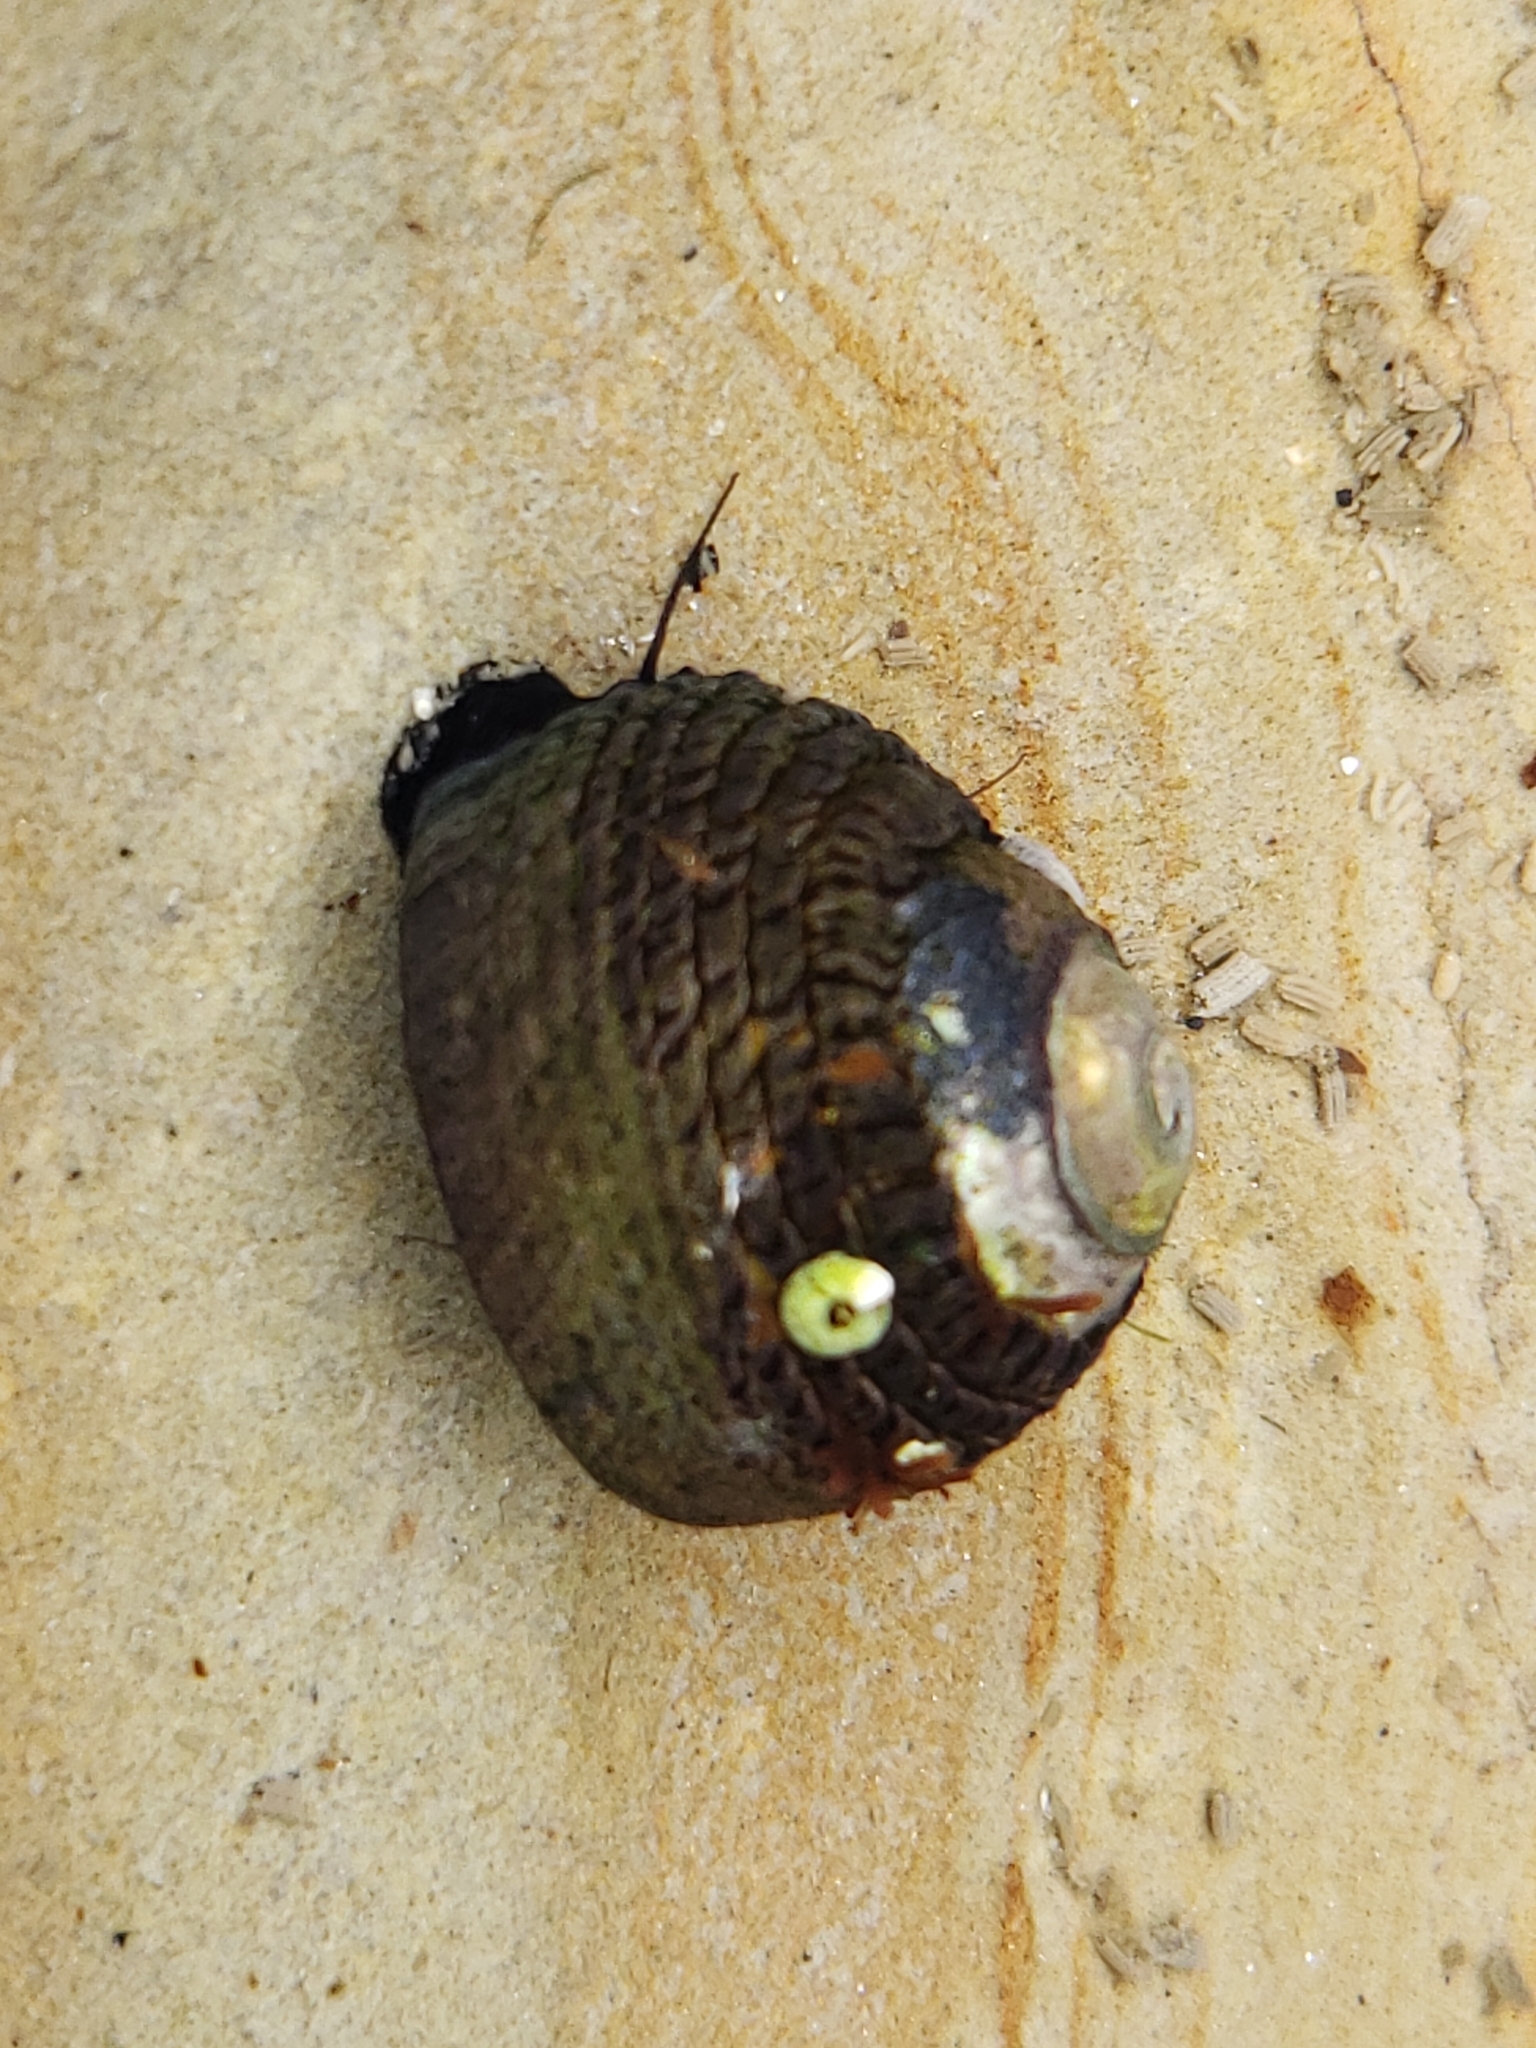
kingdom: Animalia
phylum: Mollusca
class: Gastropoda
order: Trochida
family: Tegulidae
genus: Tegula
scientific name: Tegula funebralis
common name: Black tegula
